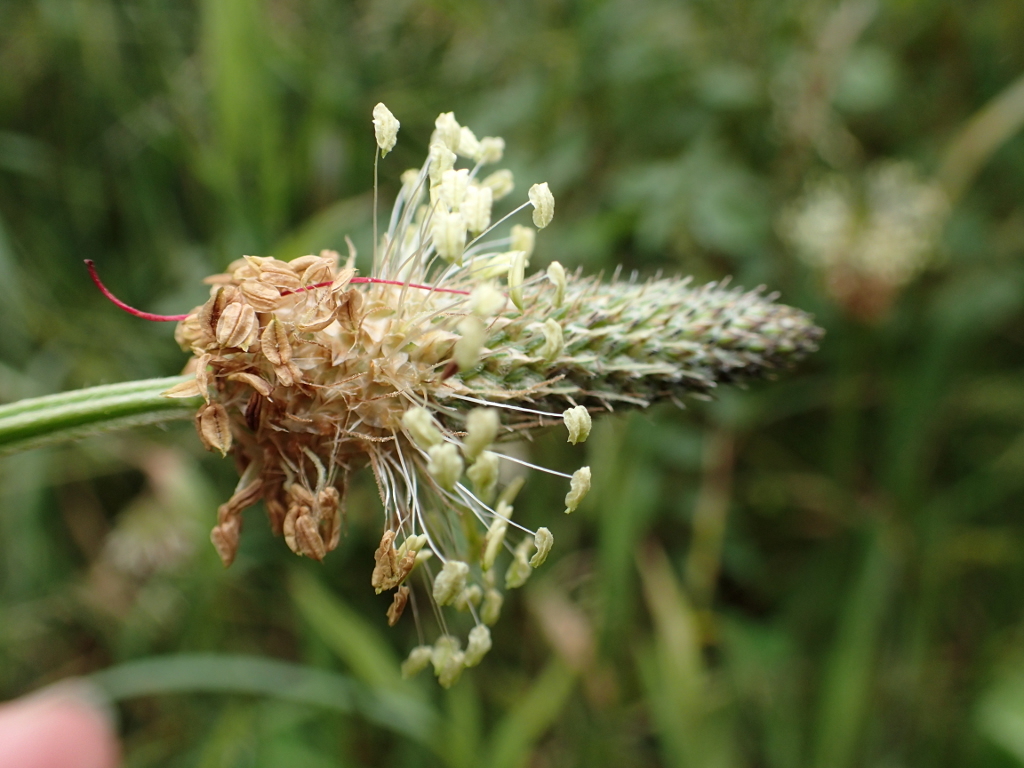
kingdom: Plantae
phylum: Tracheophyta
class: Magnoliopsida
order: Lamiales
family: Plantaginaceae
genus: Plantago
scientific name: Plantago lanceolata
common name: Ribwort plantain
